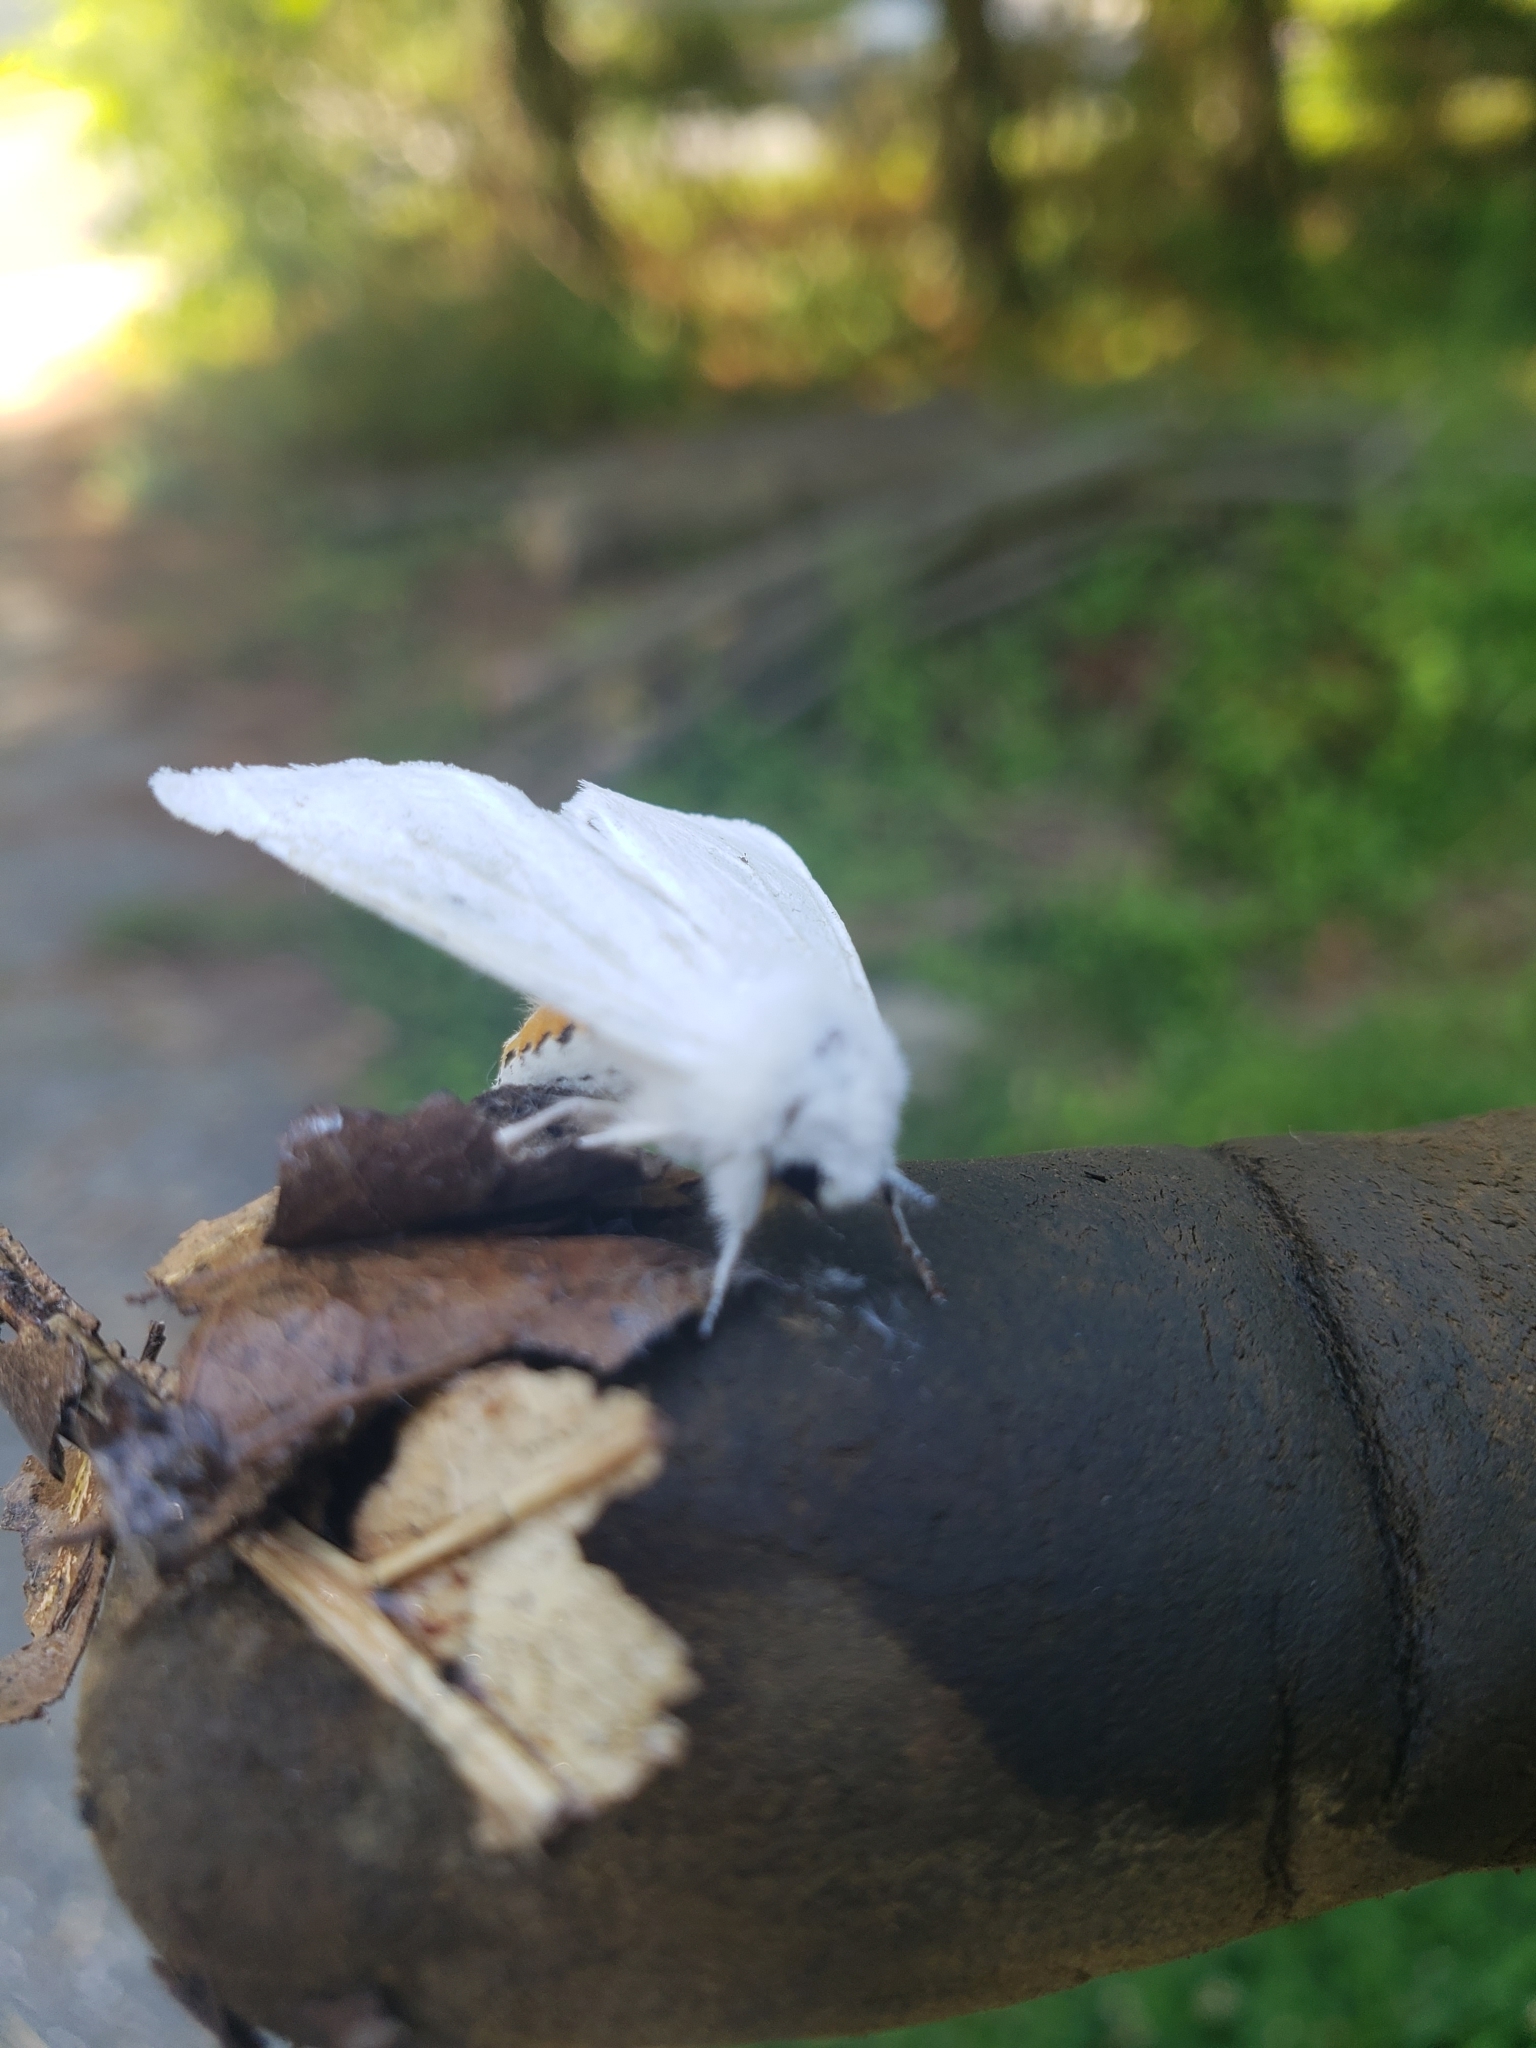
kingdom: Animalia
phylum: Arthropoda
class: Insecta
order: Lepidoptera
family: Erebidae
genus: Spilosoma
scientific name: Spilosoma virginica
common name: Virginia tiger moth
